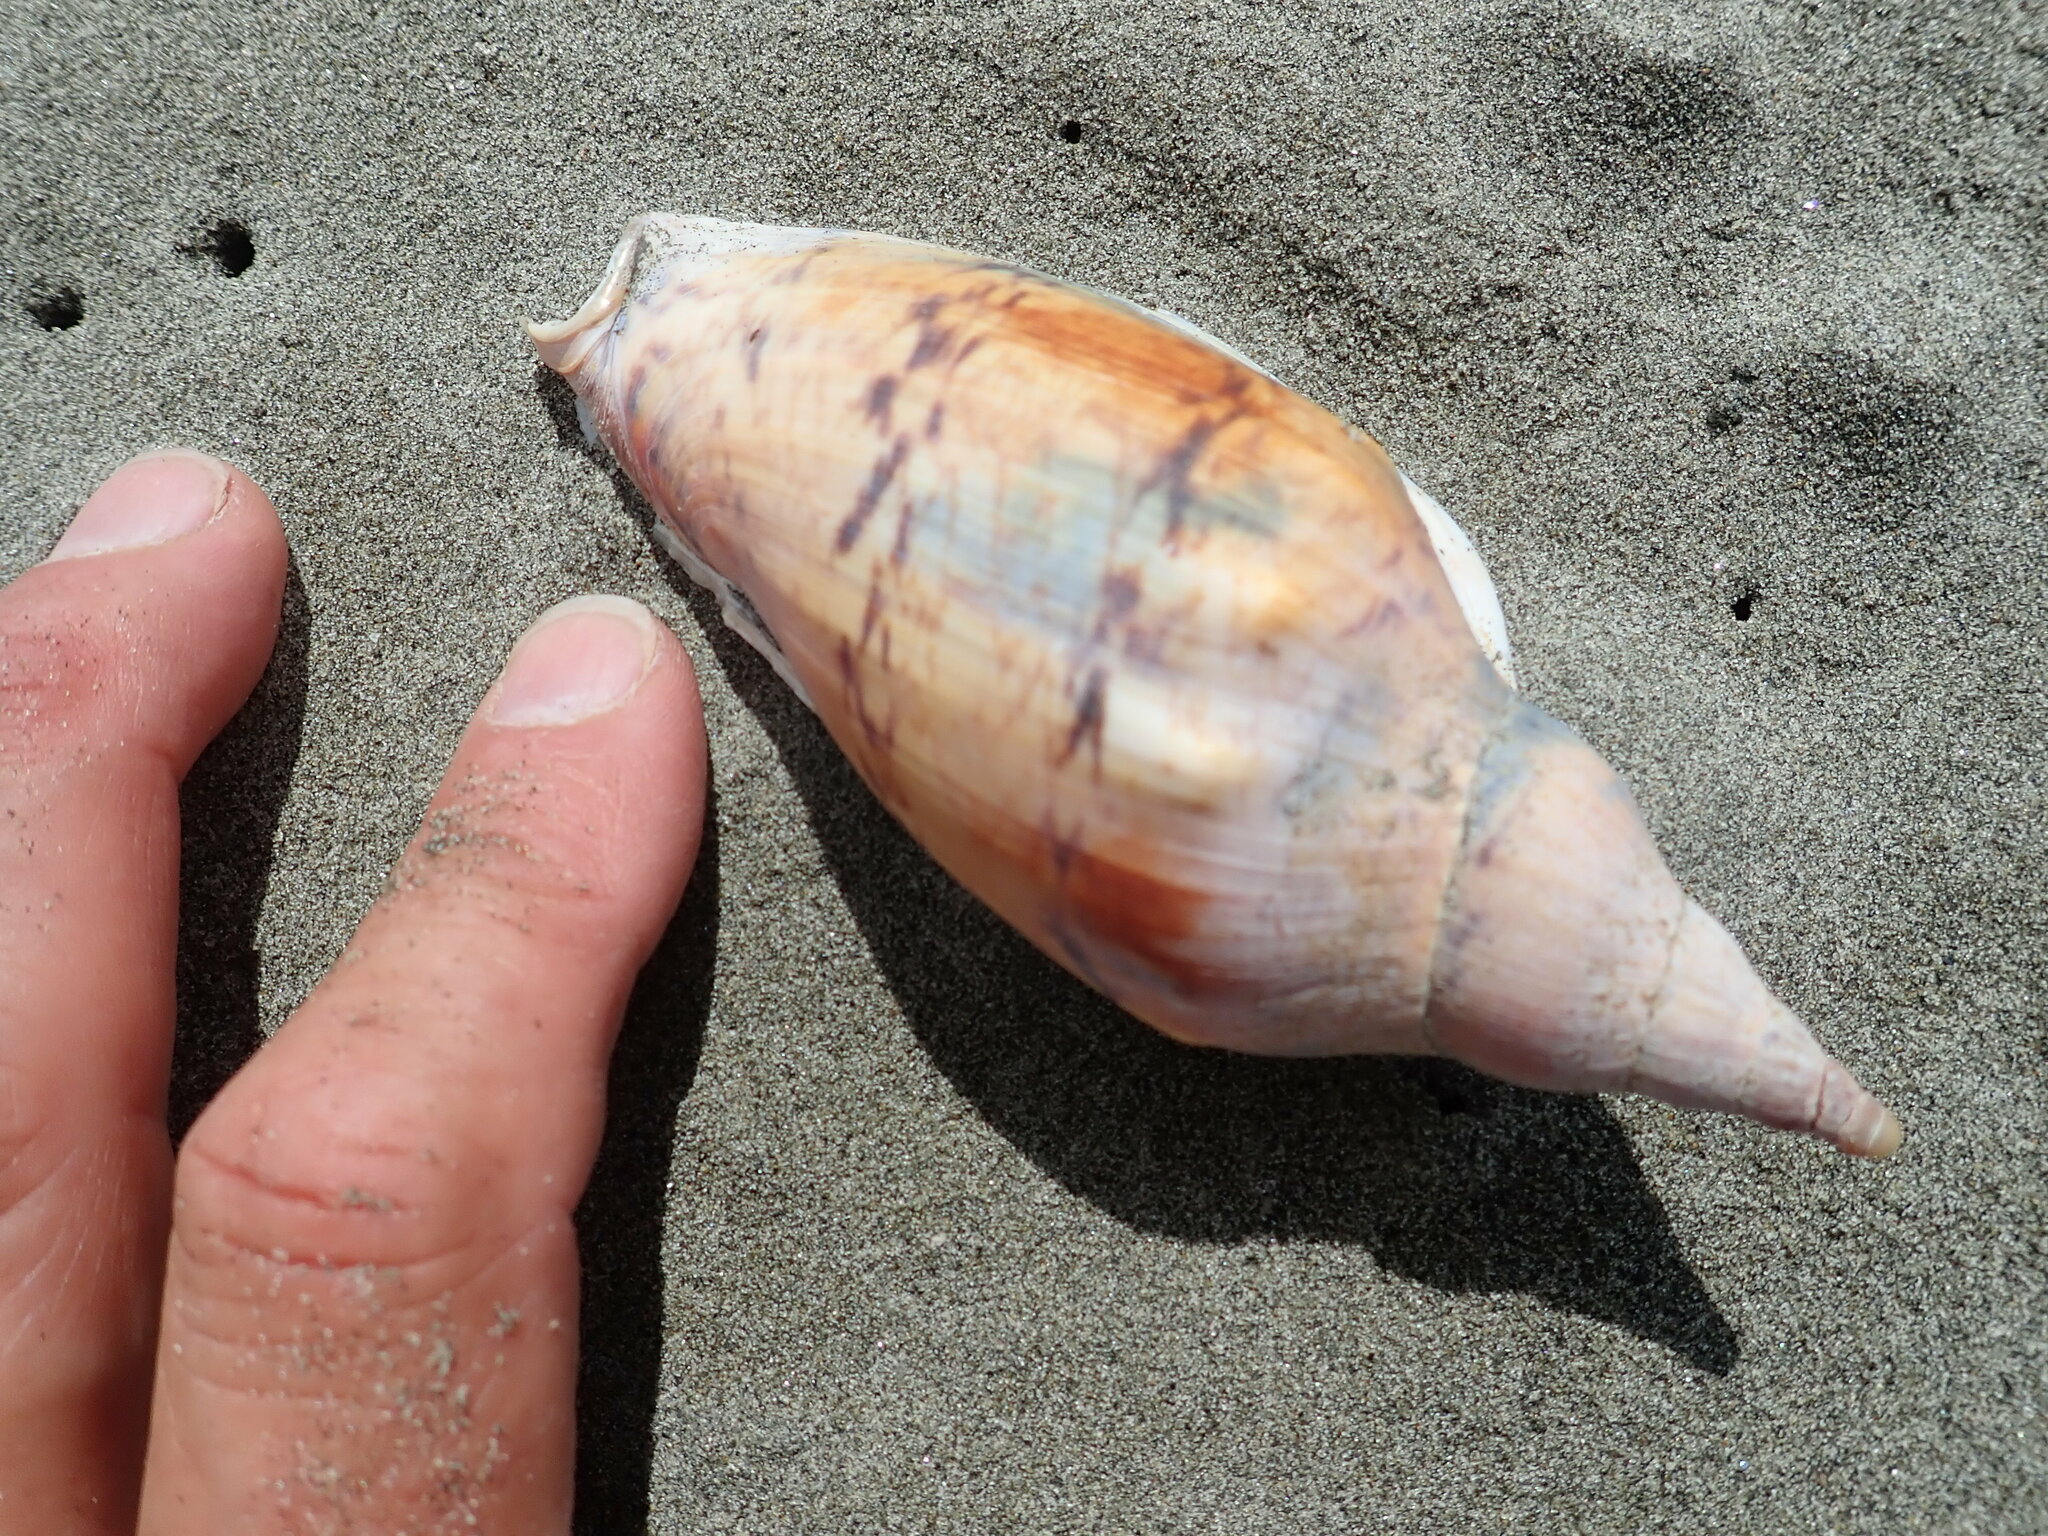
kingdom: Animalia
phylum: Mollusca
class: Gastropoda
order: Neogastropoda
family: Volutidae
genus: Alcithoe
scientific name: Alcithoe arabica
